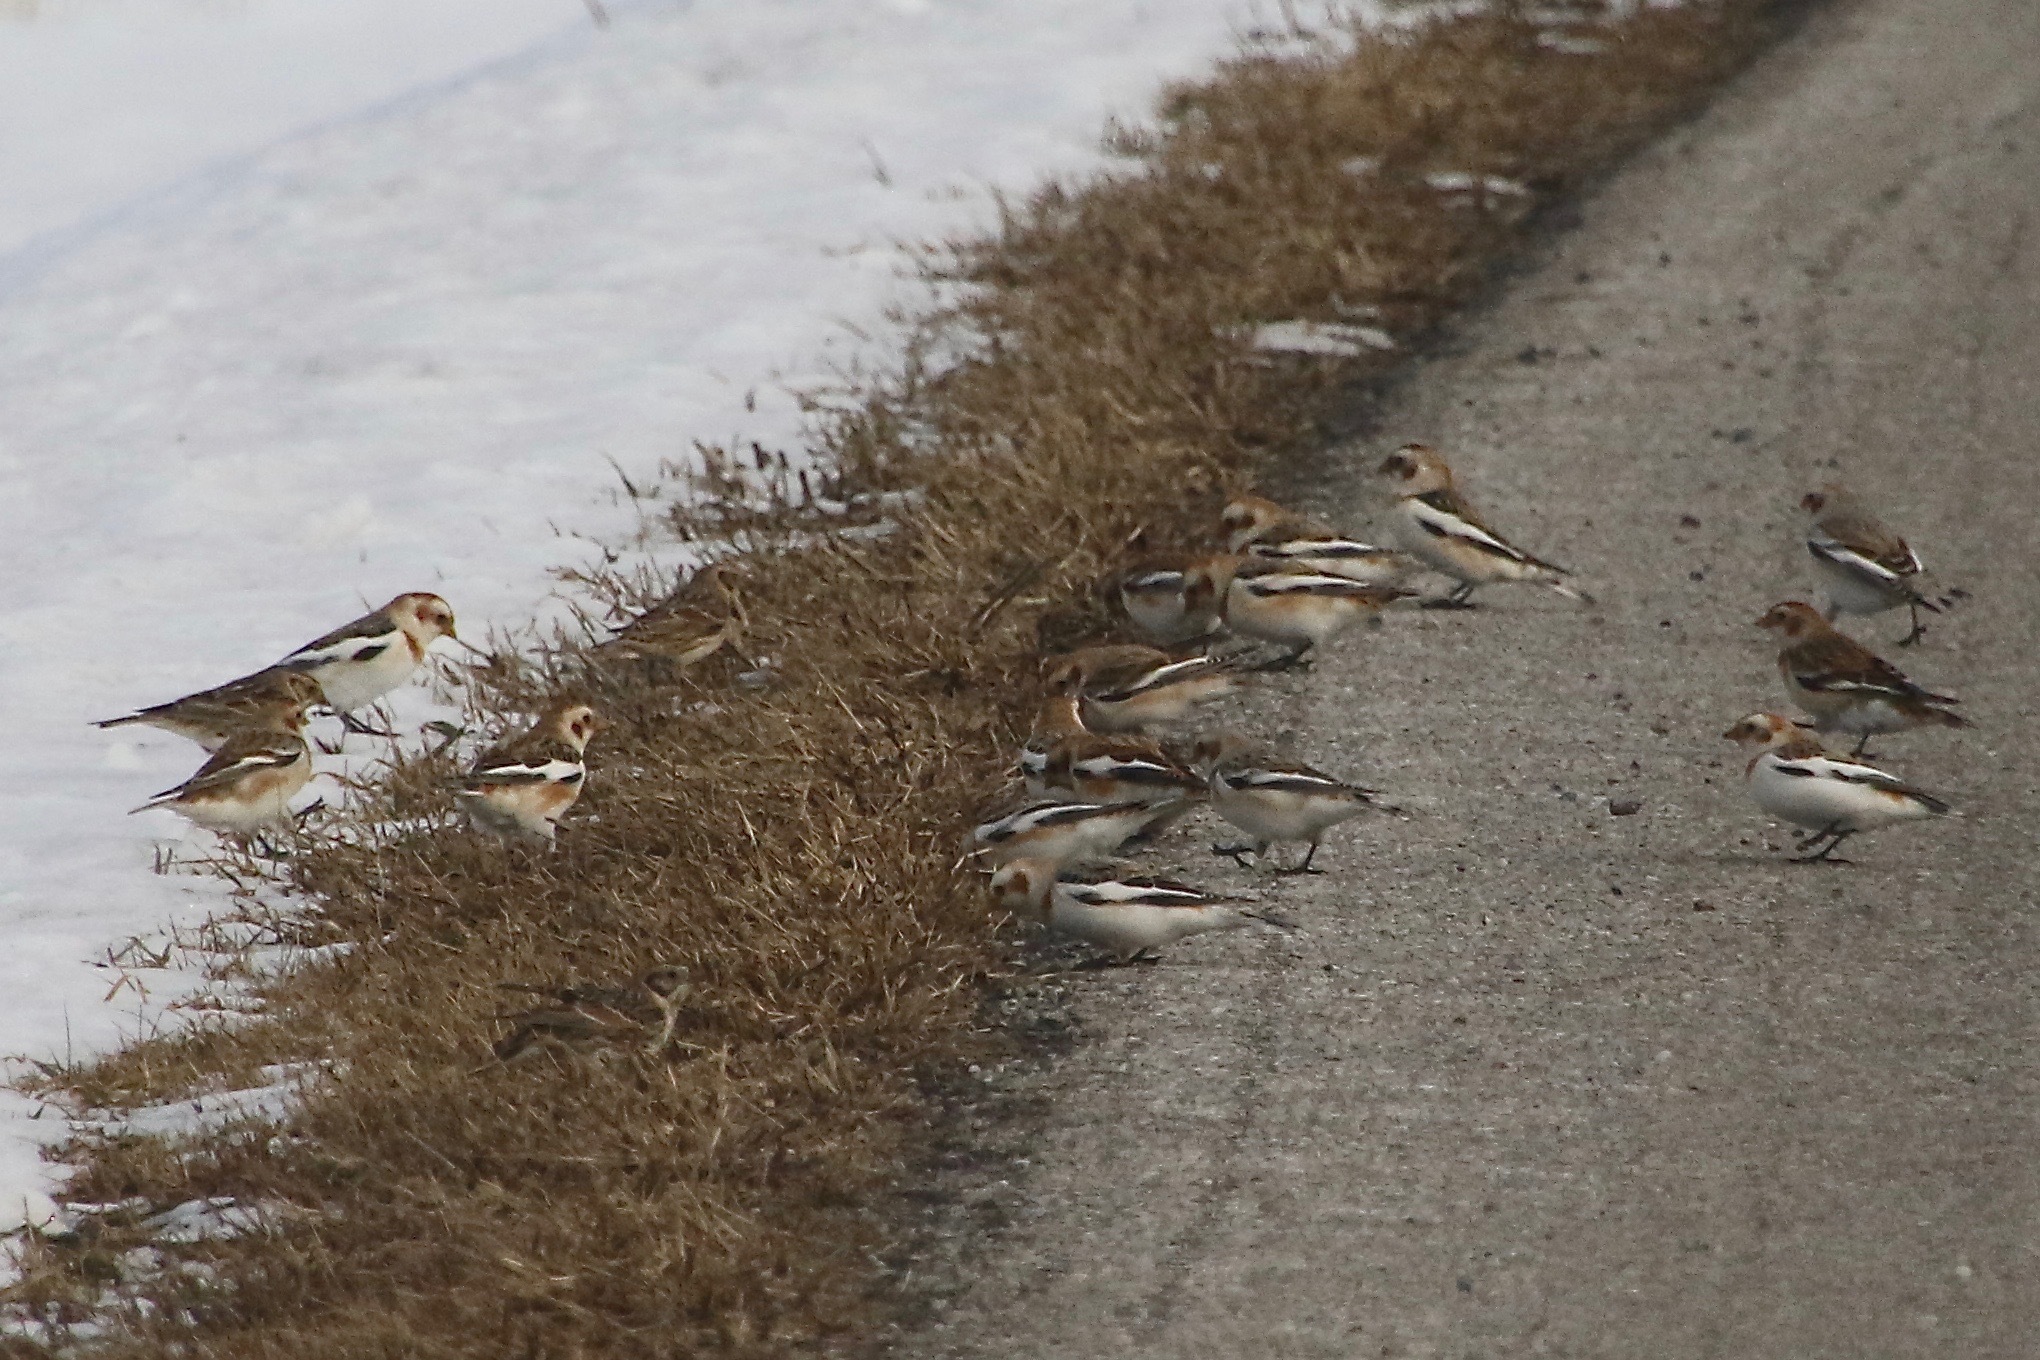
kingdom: Animalia
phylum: Chordata
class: Aves
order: Passeriformes
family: Calcariidae
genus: Plectrophenax
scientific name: Plectrophenax nivalis
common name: Snow bunting
